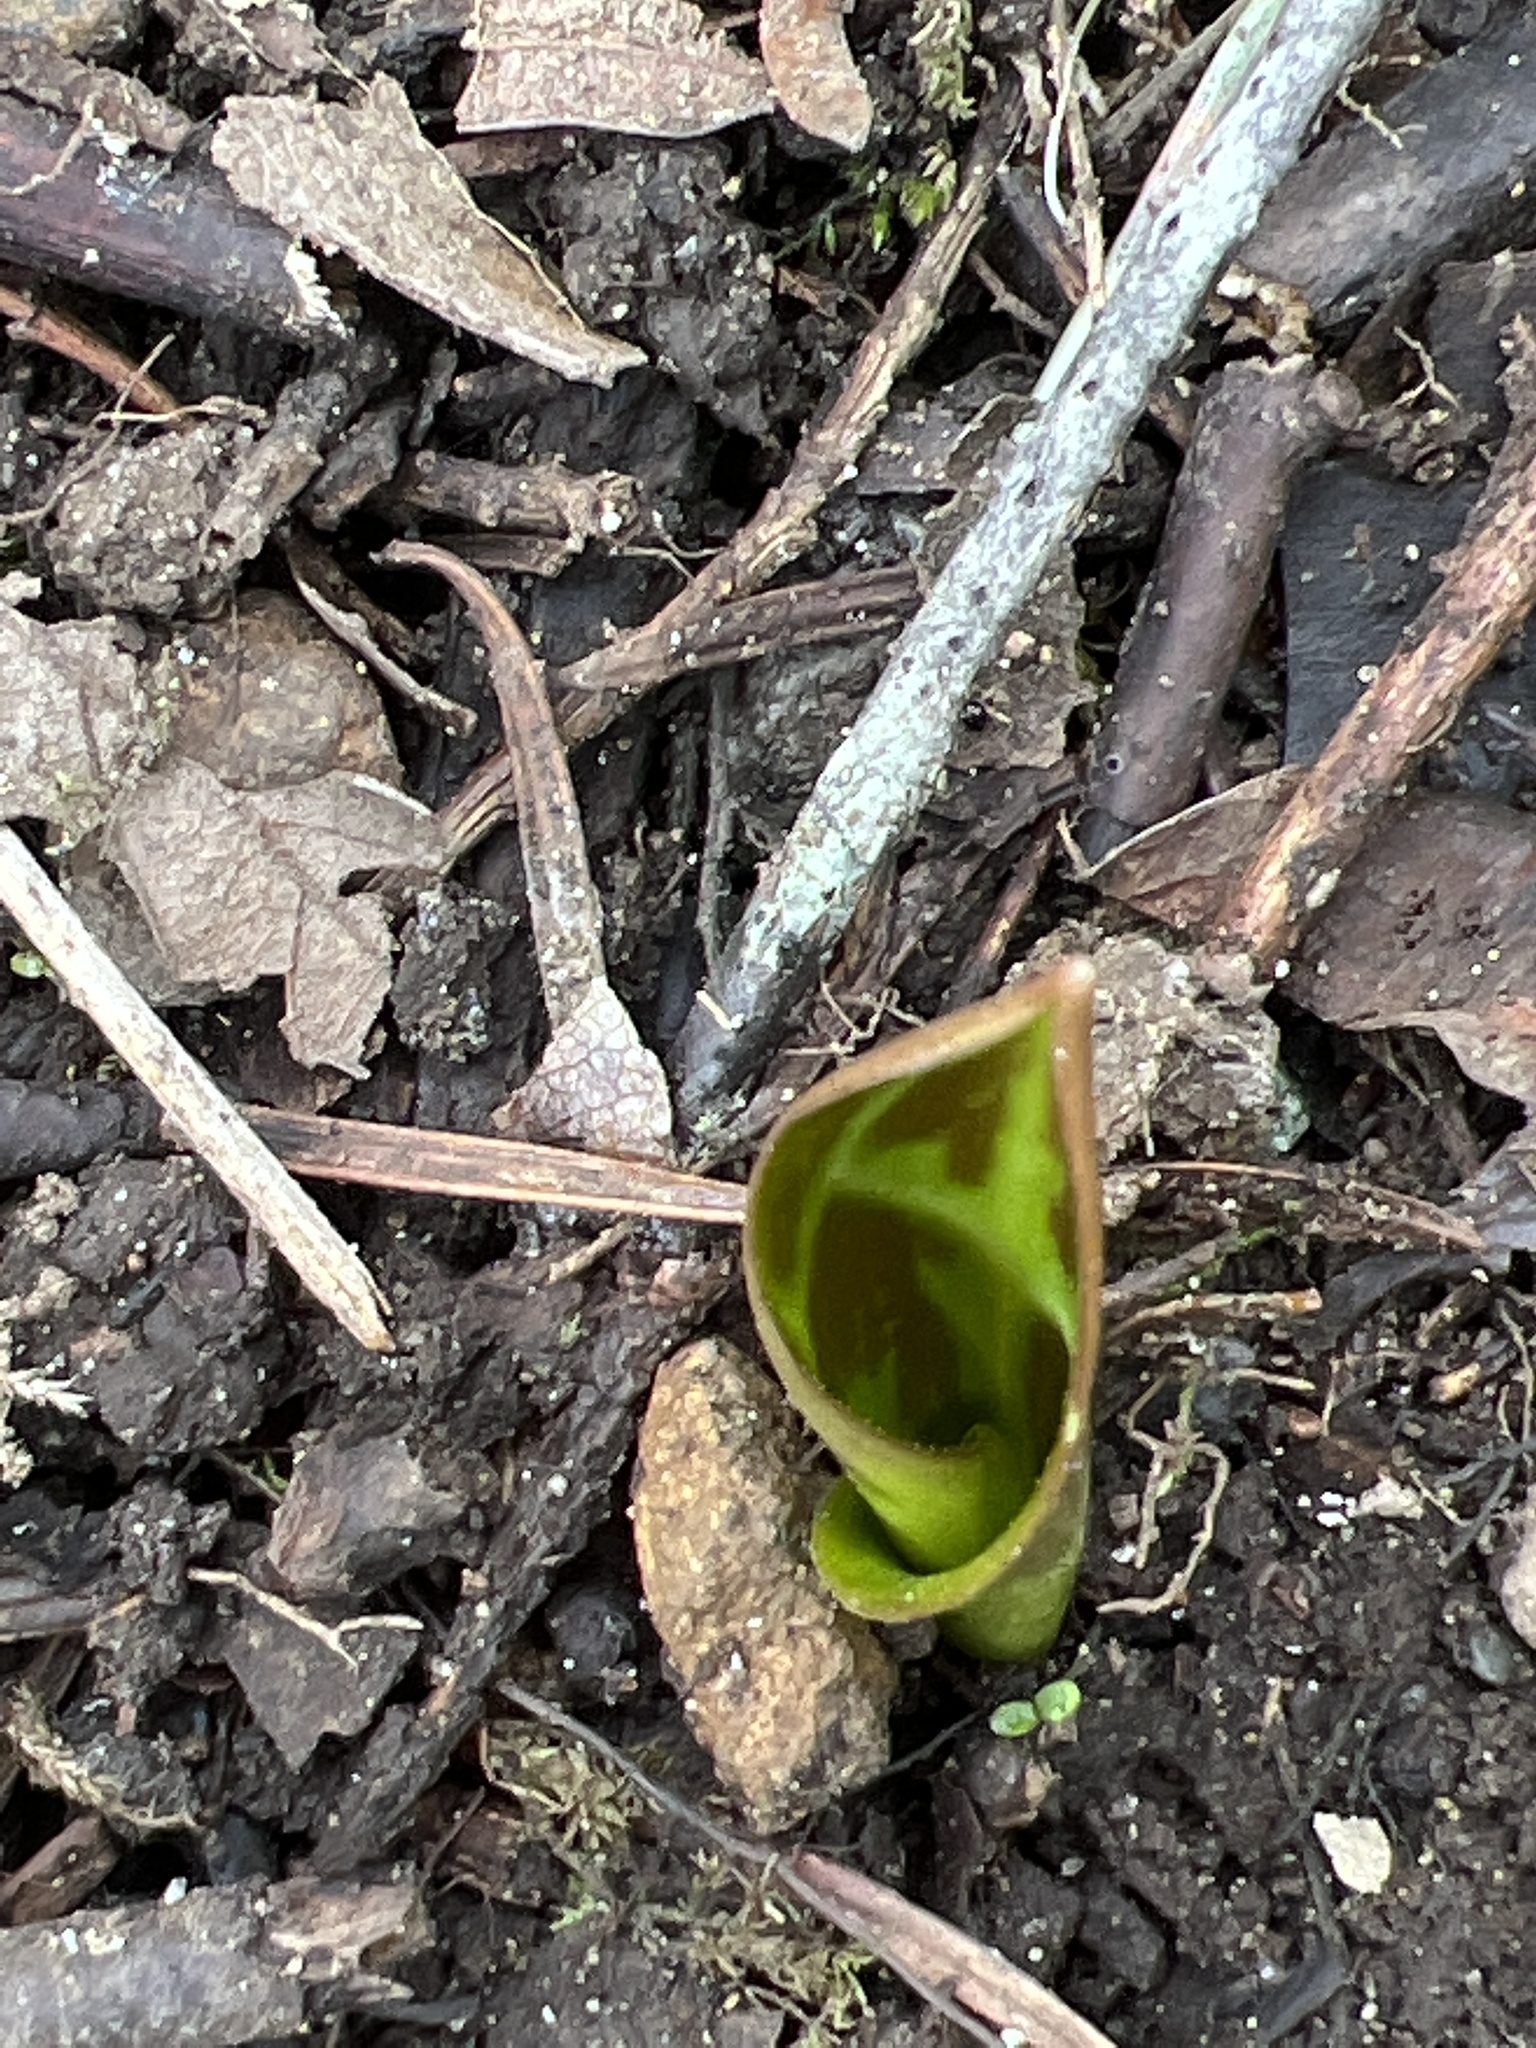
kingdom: Plantae
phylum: Tracheophyta
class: Liliopsida
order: Liliales
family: Liliaceae
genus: Erythronium
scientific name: Erythronium oregonum
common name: Giant adder's-tongue
